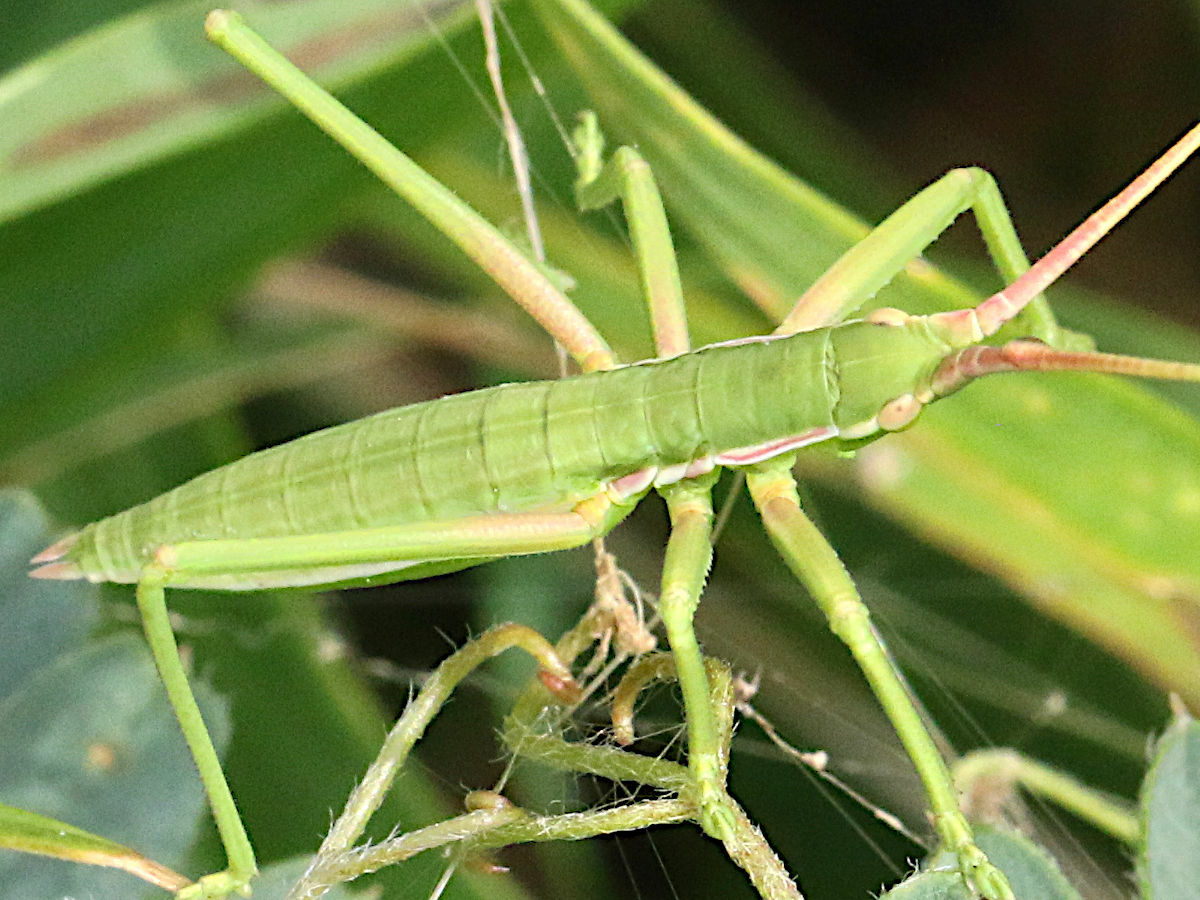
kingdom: Animalia
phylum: Arthropoda
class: Insecta
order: Orthoptera
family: Tettigoniidae
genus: Saga
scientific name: Saga ornata
